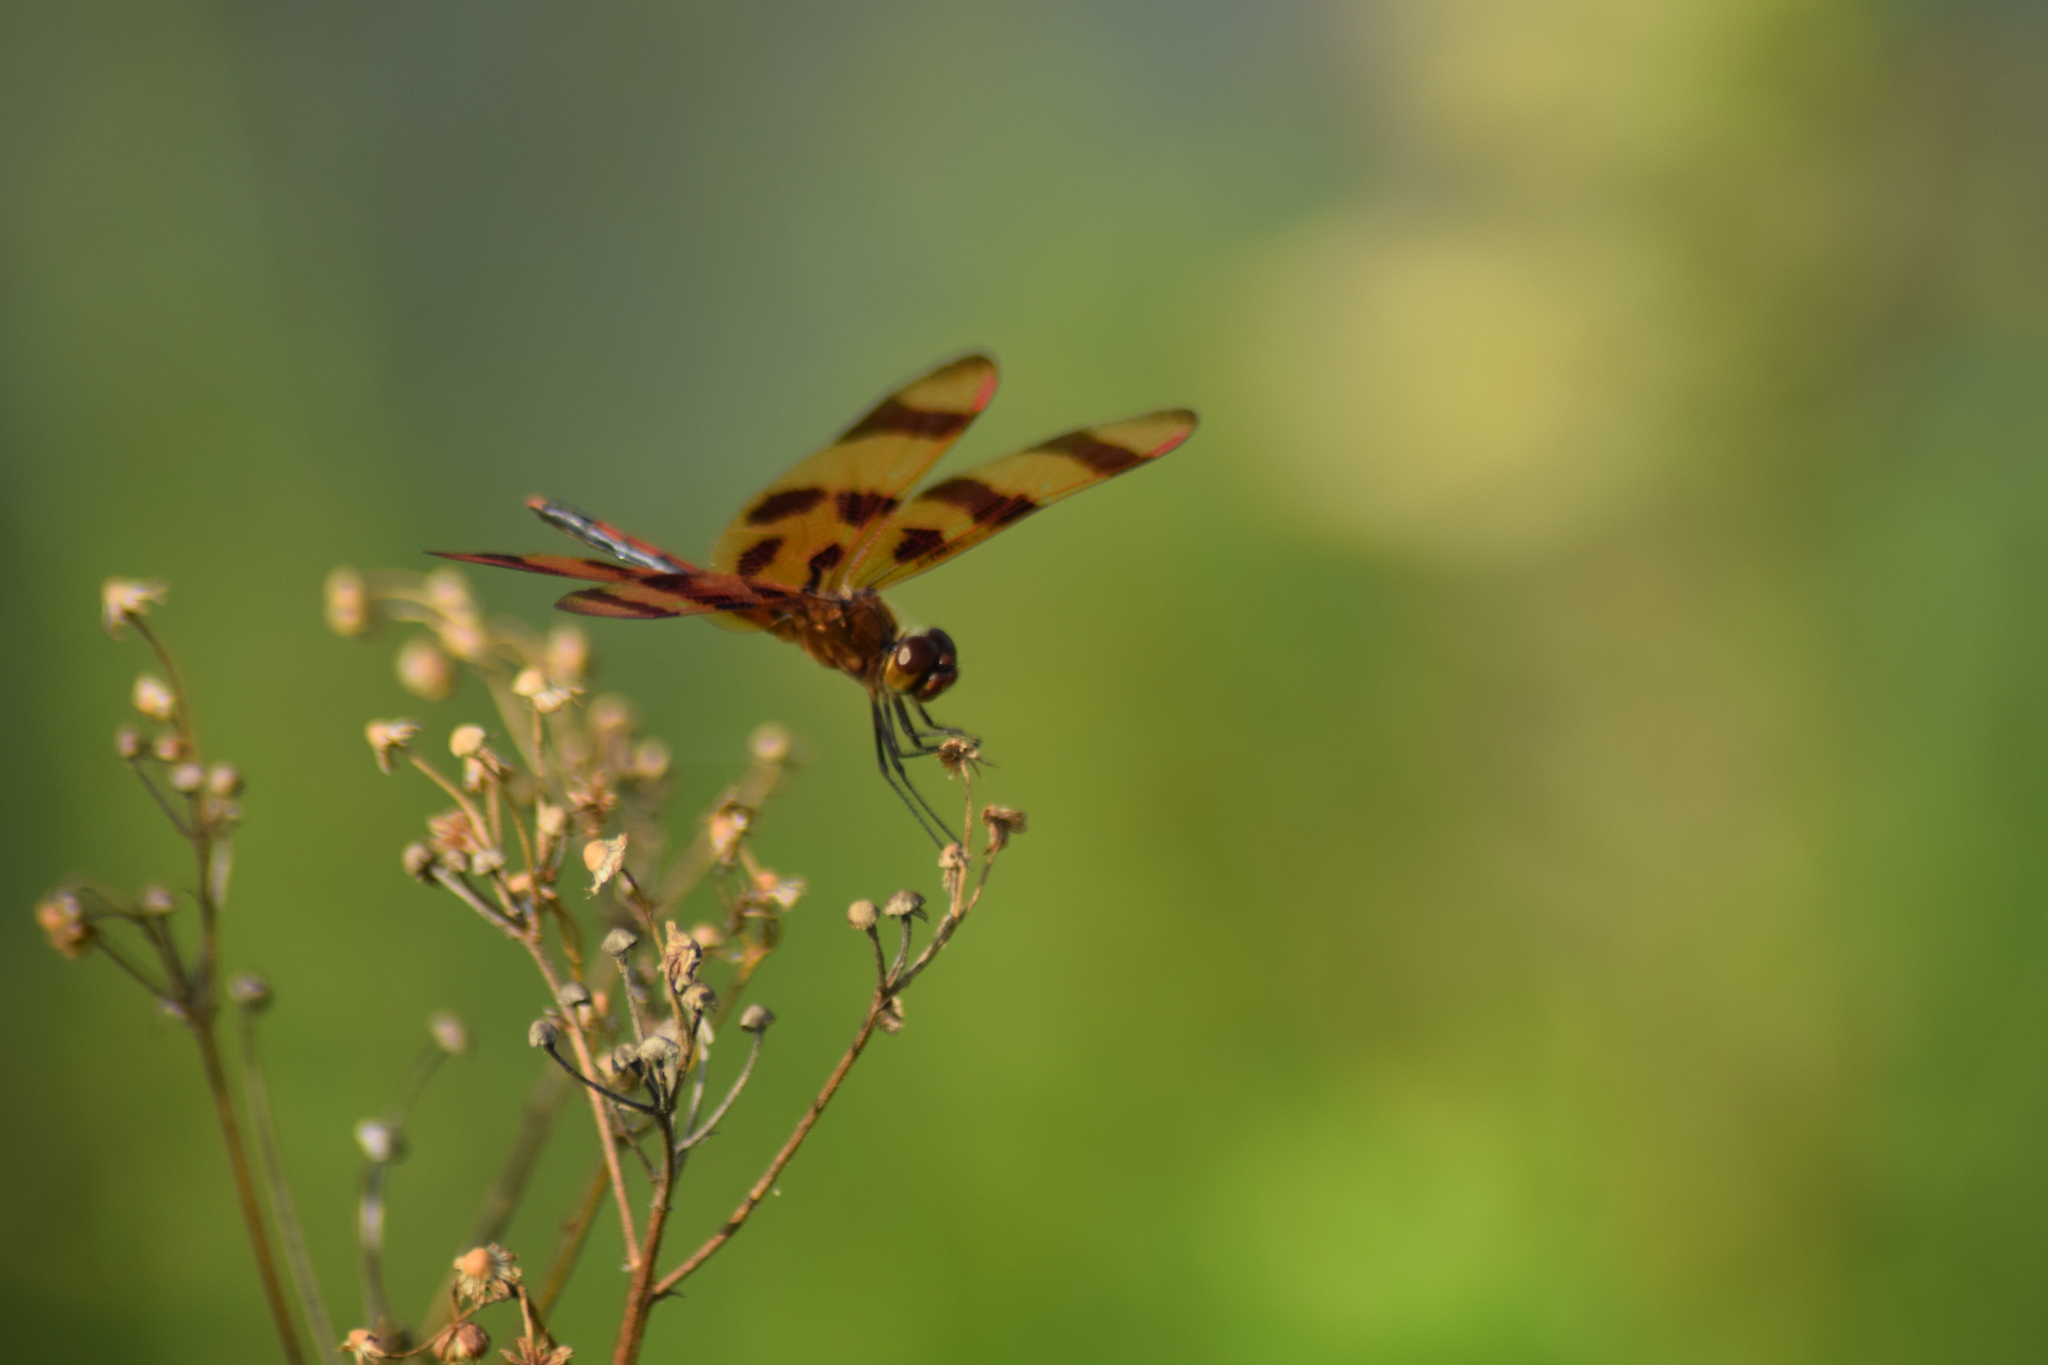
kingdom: Animalia
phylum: Arthropoda
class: Insecta
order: Odonata
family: Libellulidae
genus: Celithemis
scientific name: Celithemis eponina
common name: Halloween pennant
